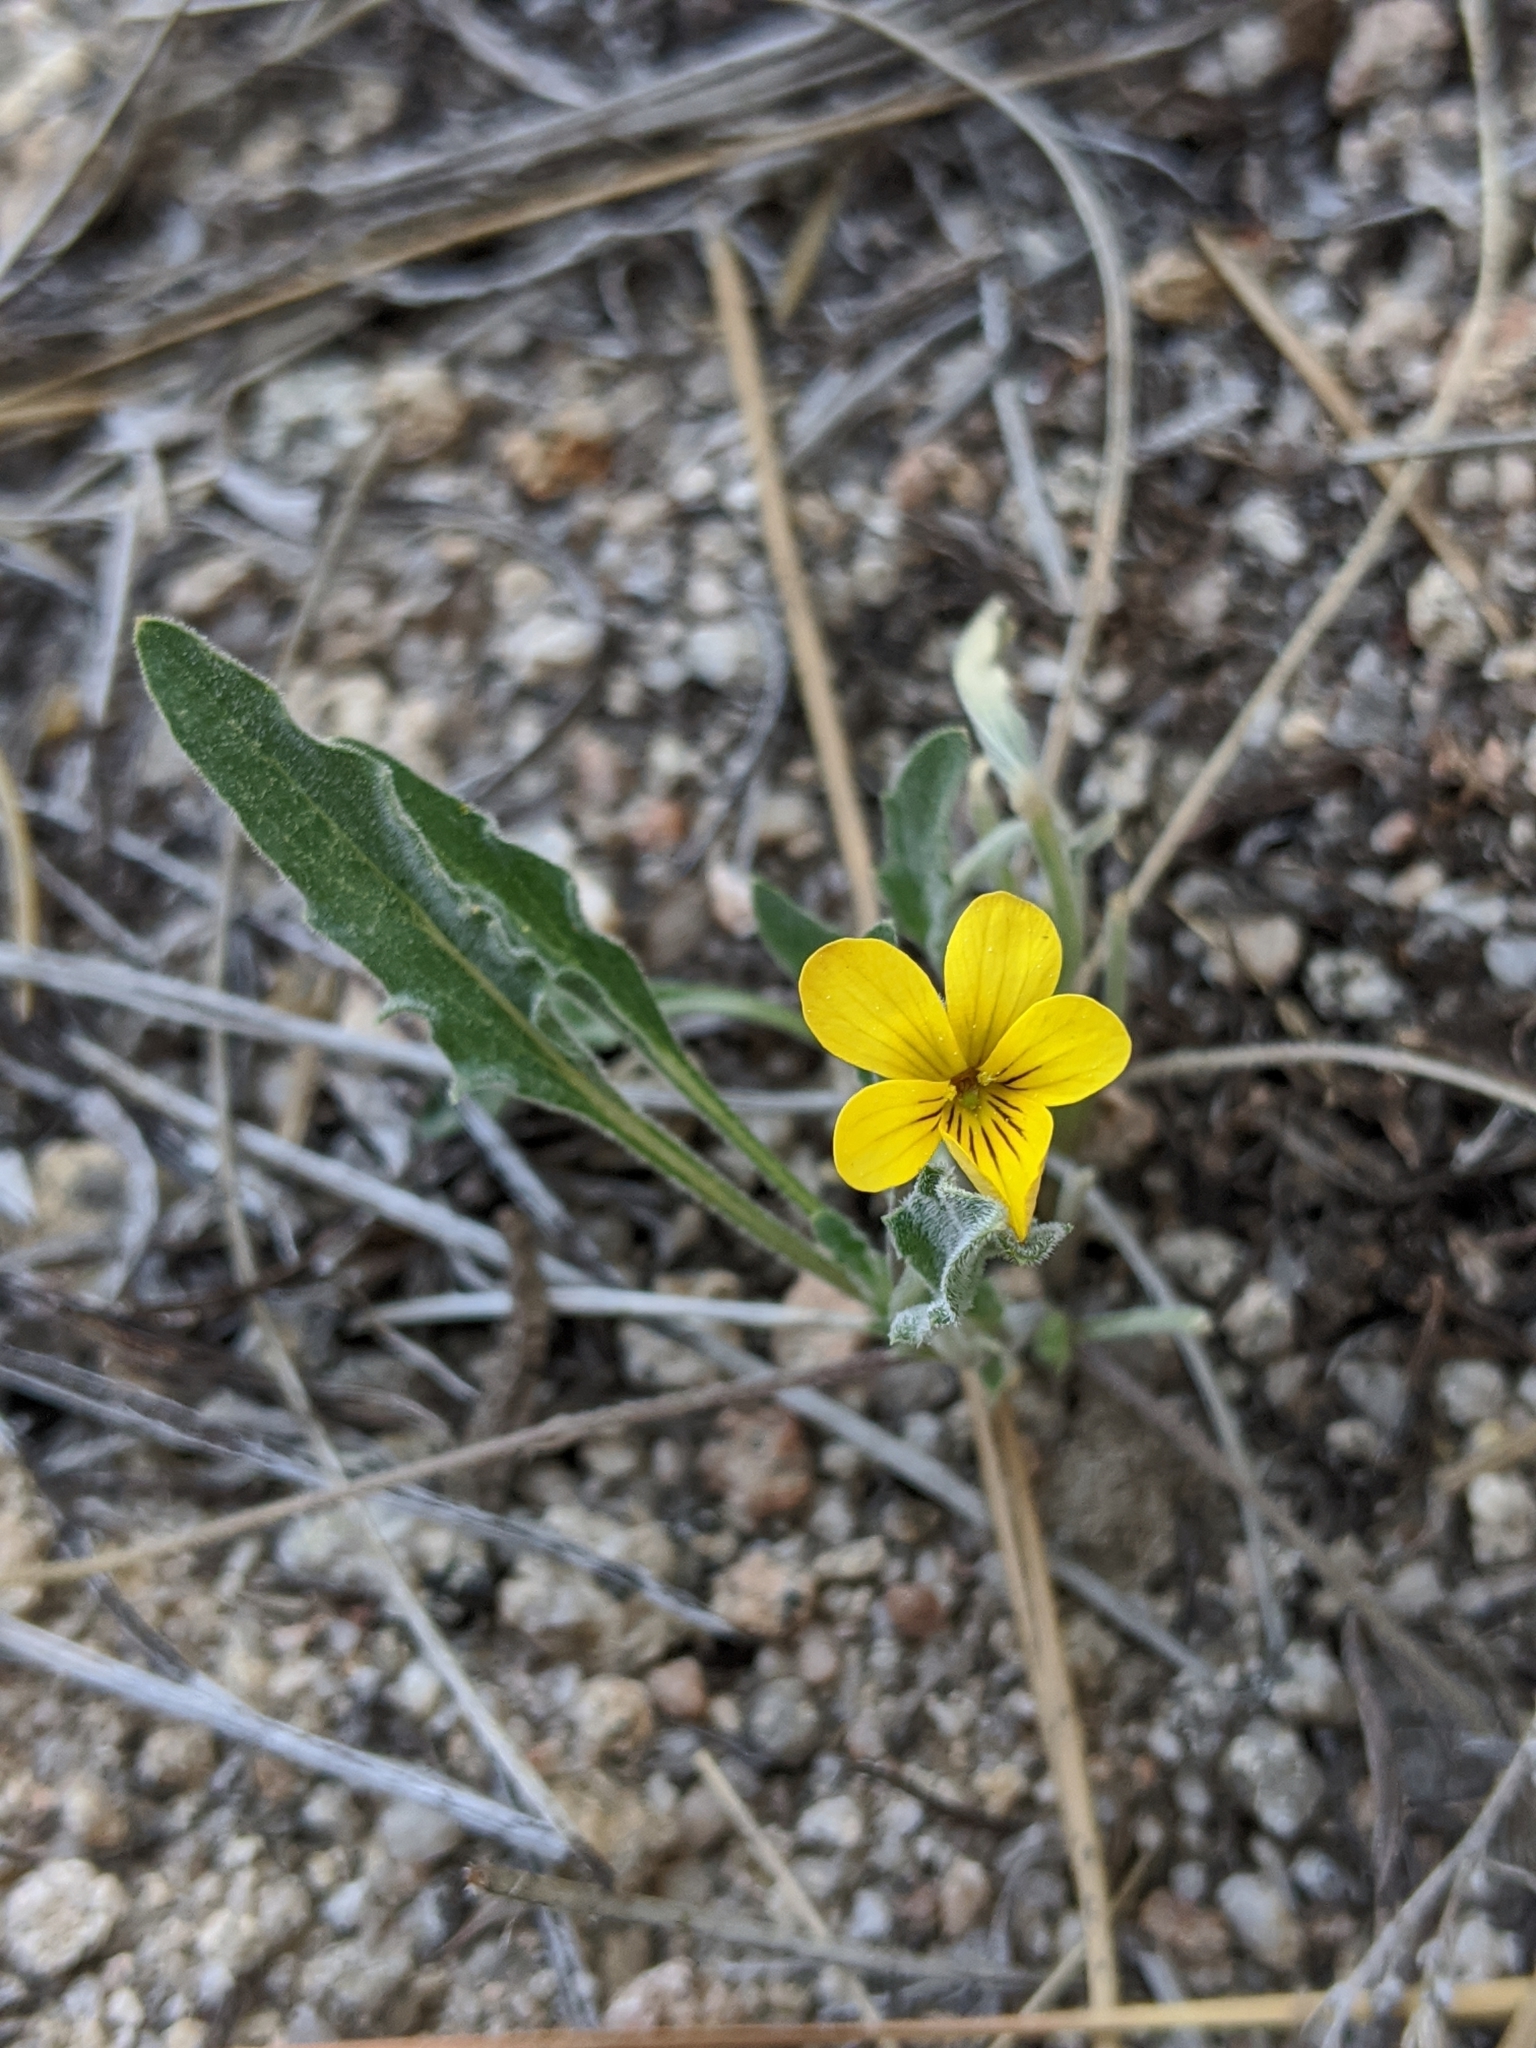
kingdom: Plantae
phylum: Tracheophyta
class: Magnoliopsida
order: Malpighiales
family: Violaceae
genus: Viola
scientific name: Viola pinetorum
